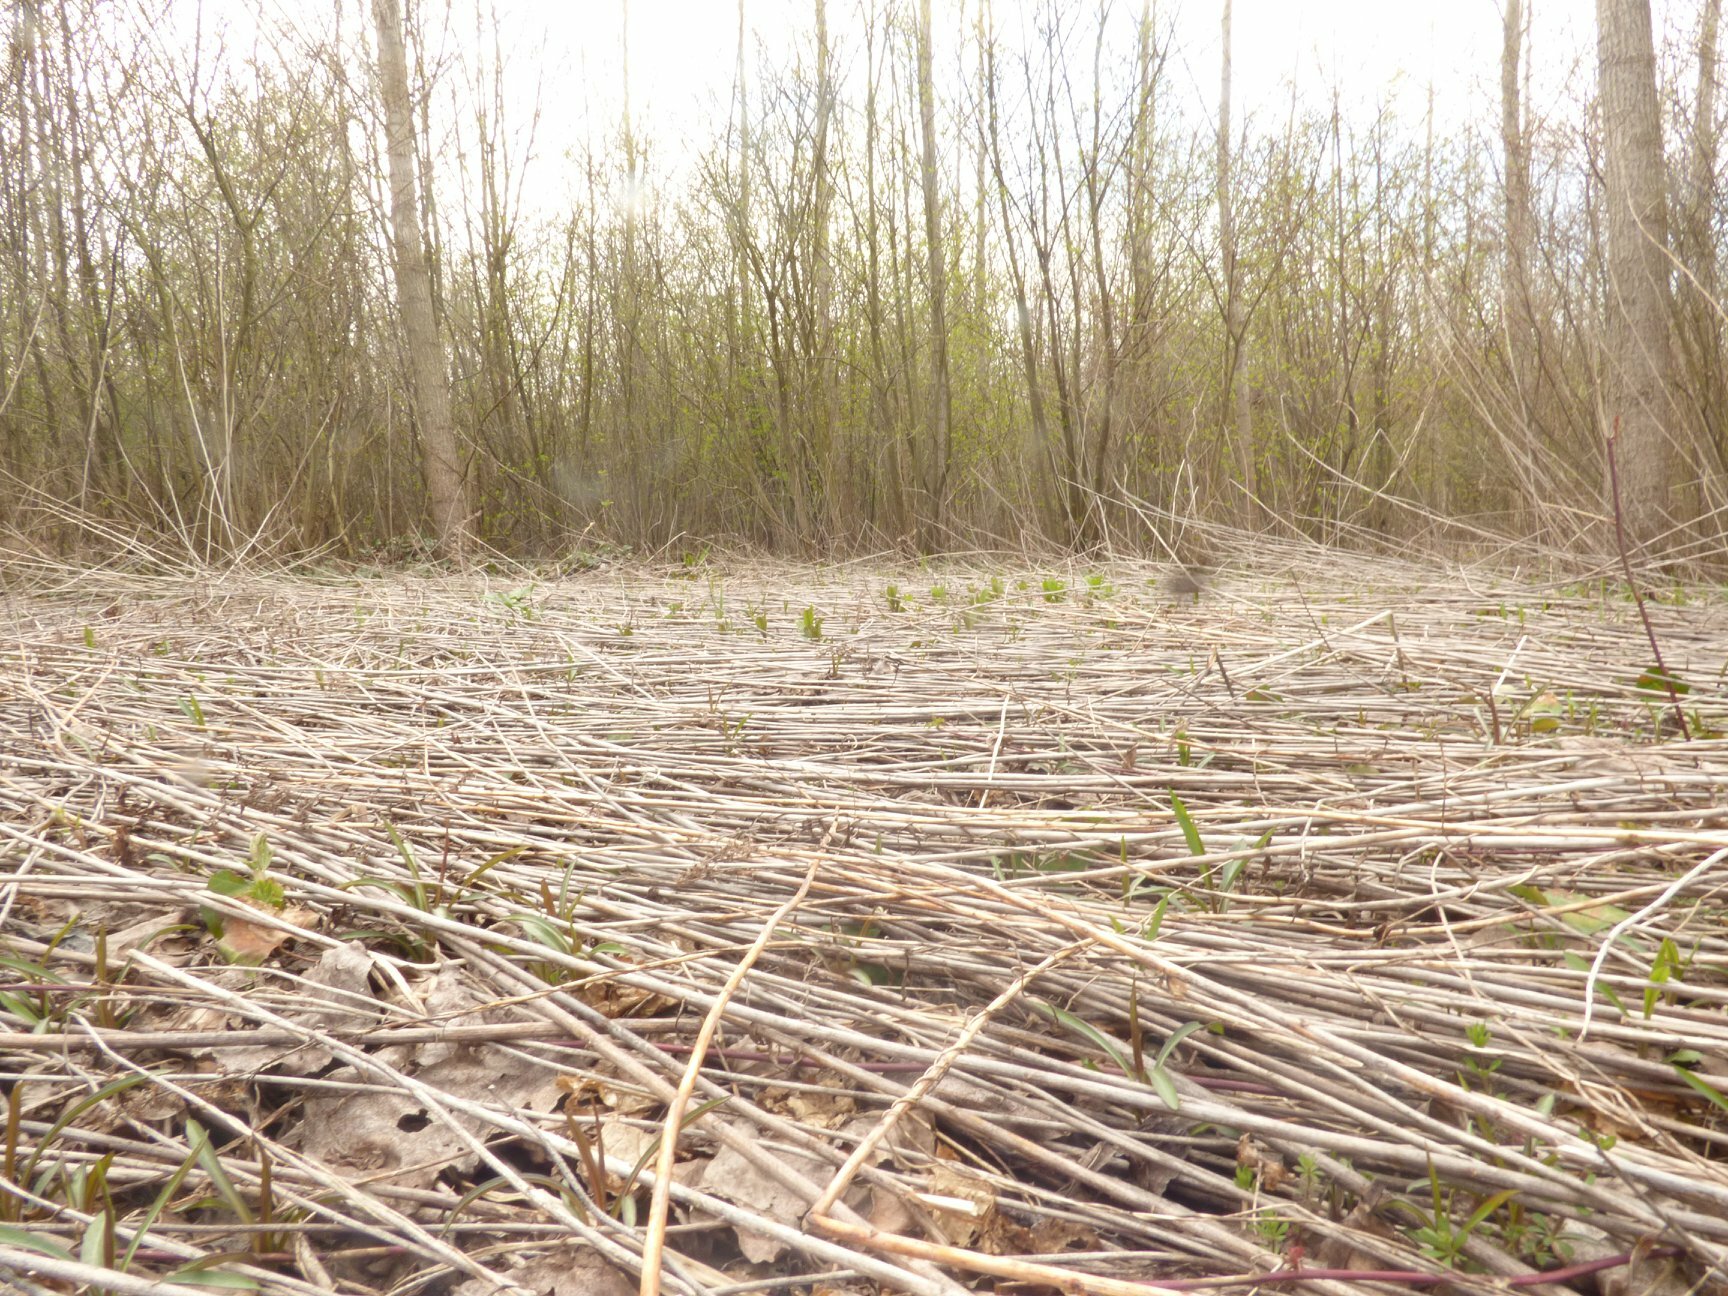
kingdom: Fungi
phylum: Ascomycota
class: Pezizomycetes
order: Pezizales
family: Morchellaceae
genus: Verpa
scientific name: Verpa bohemica
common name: Wrinkled thimble morel
